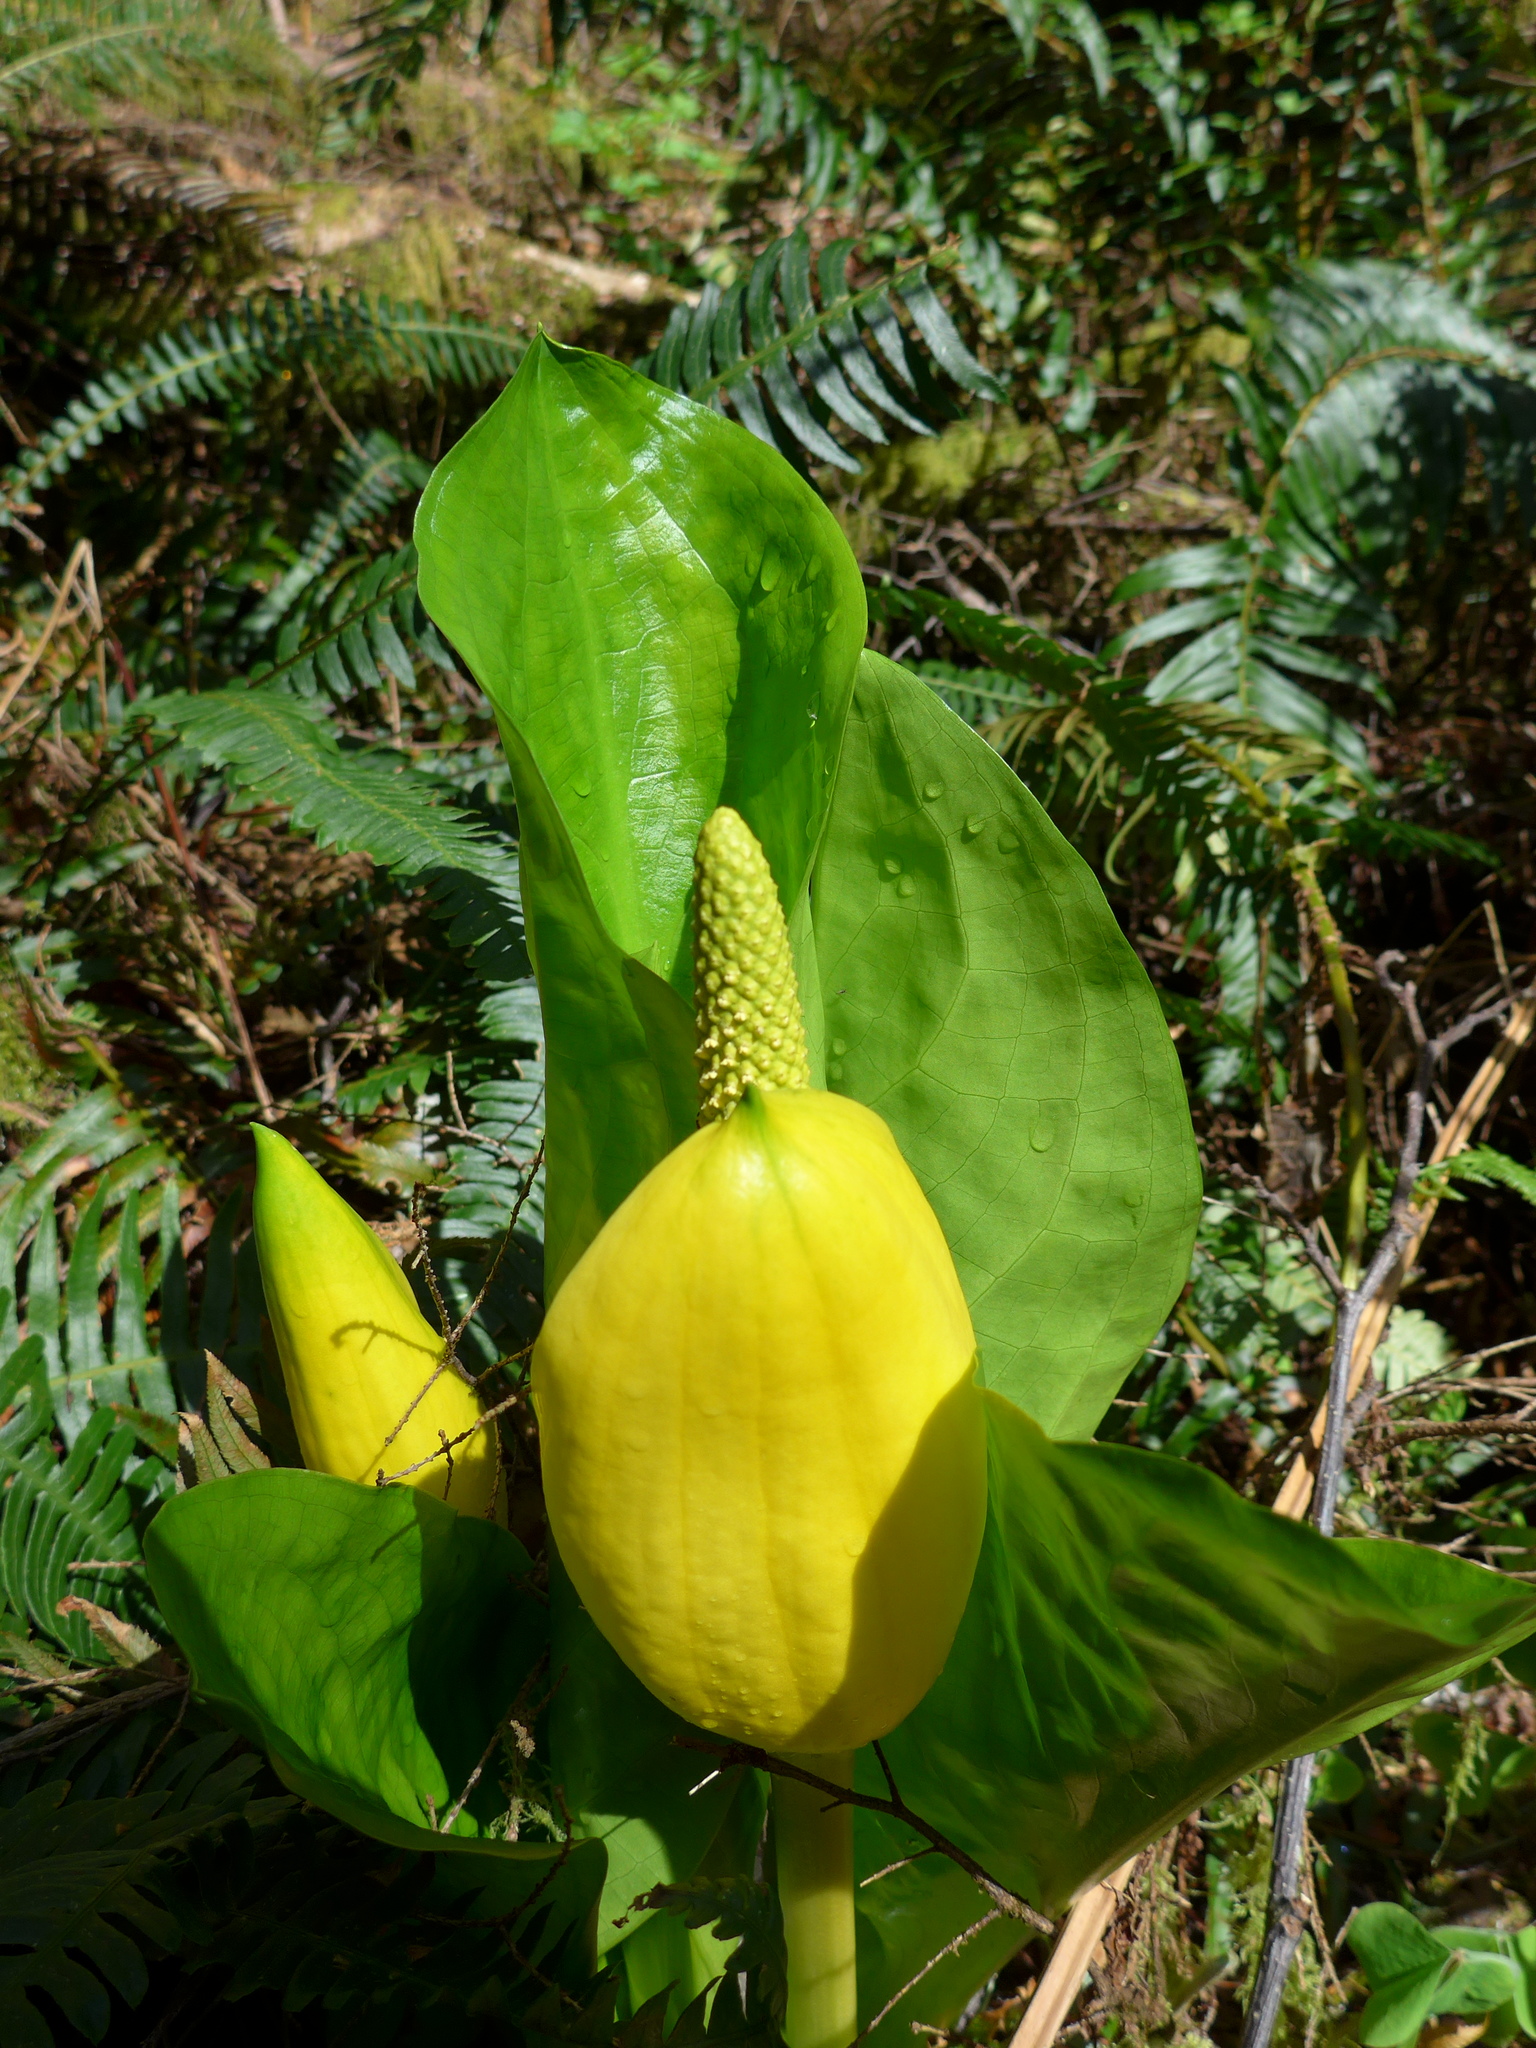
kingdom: Plantae
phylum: Tracheophyta
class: Liliopsida
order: Alismatales
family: Araceae
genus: Lysichiton
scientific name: Lysichiton americanus
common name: American skunk cabbage
